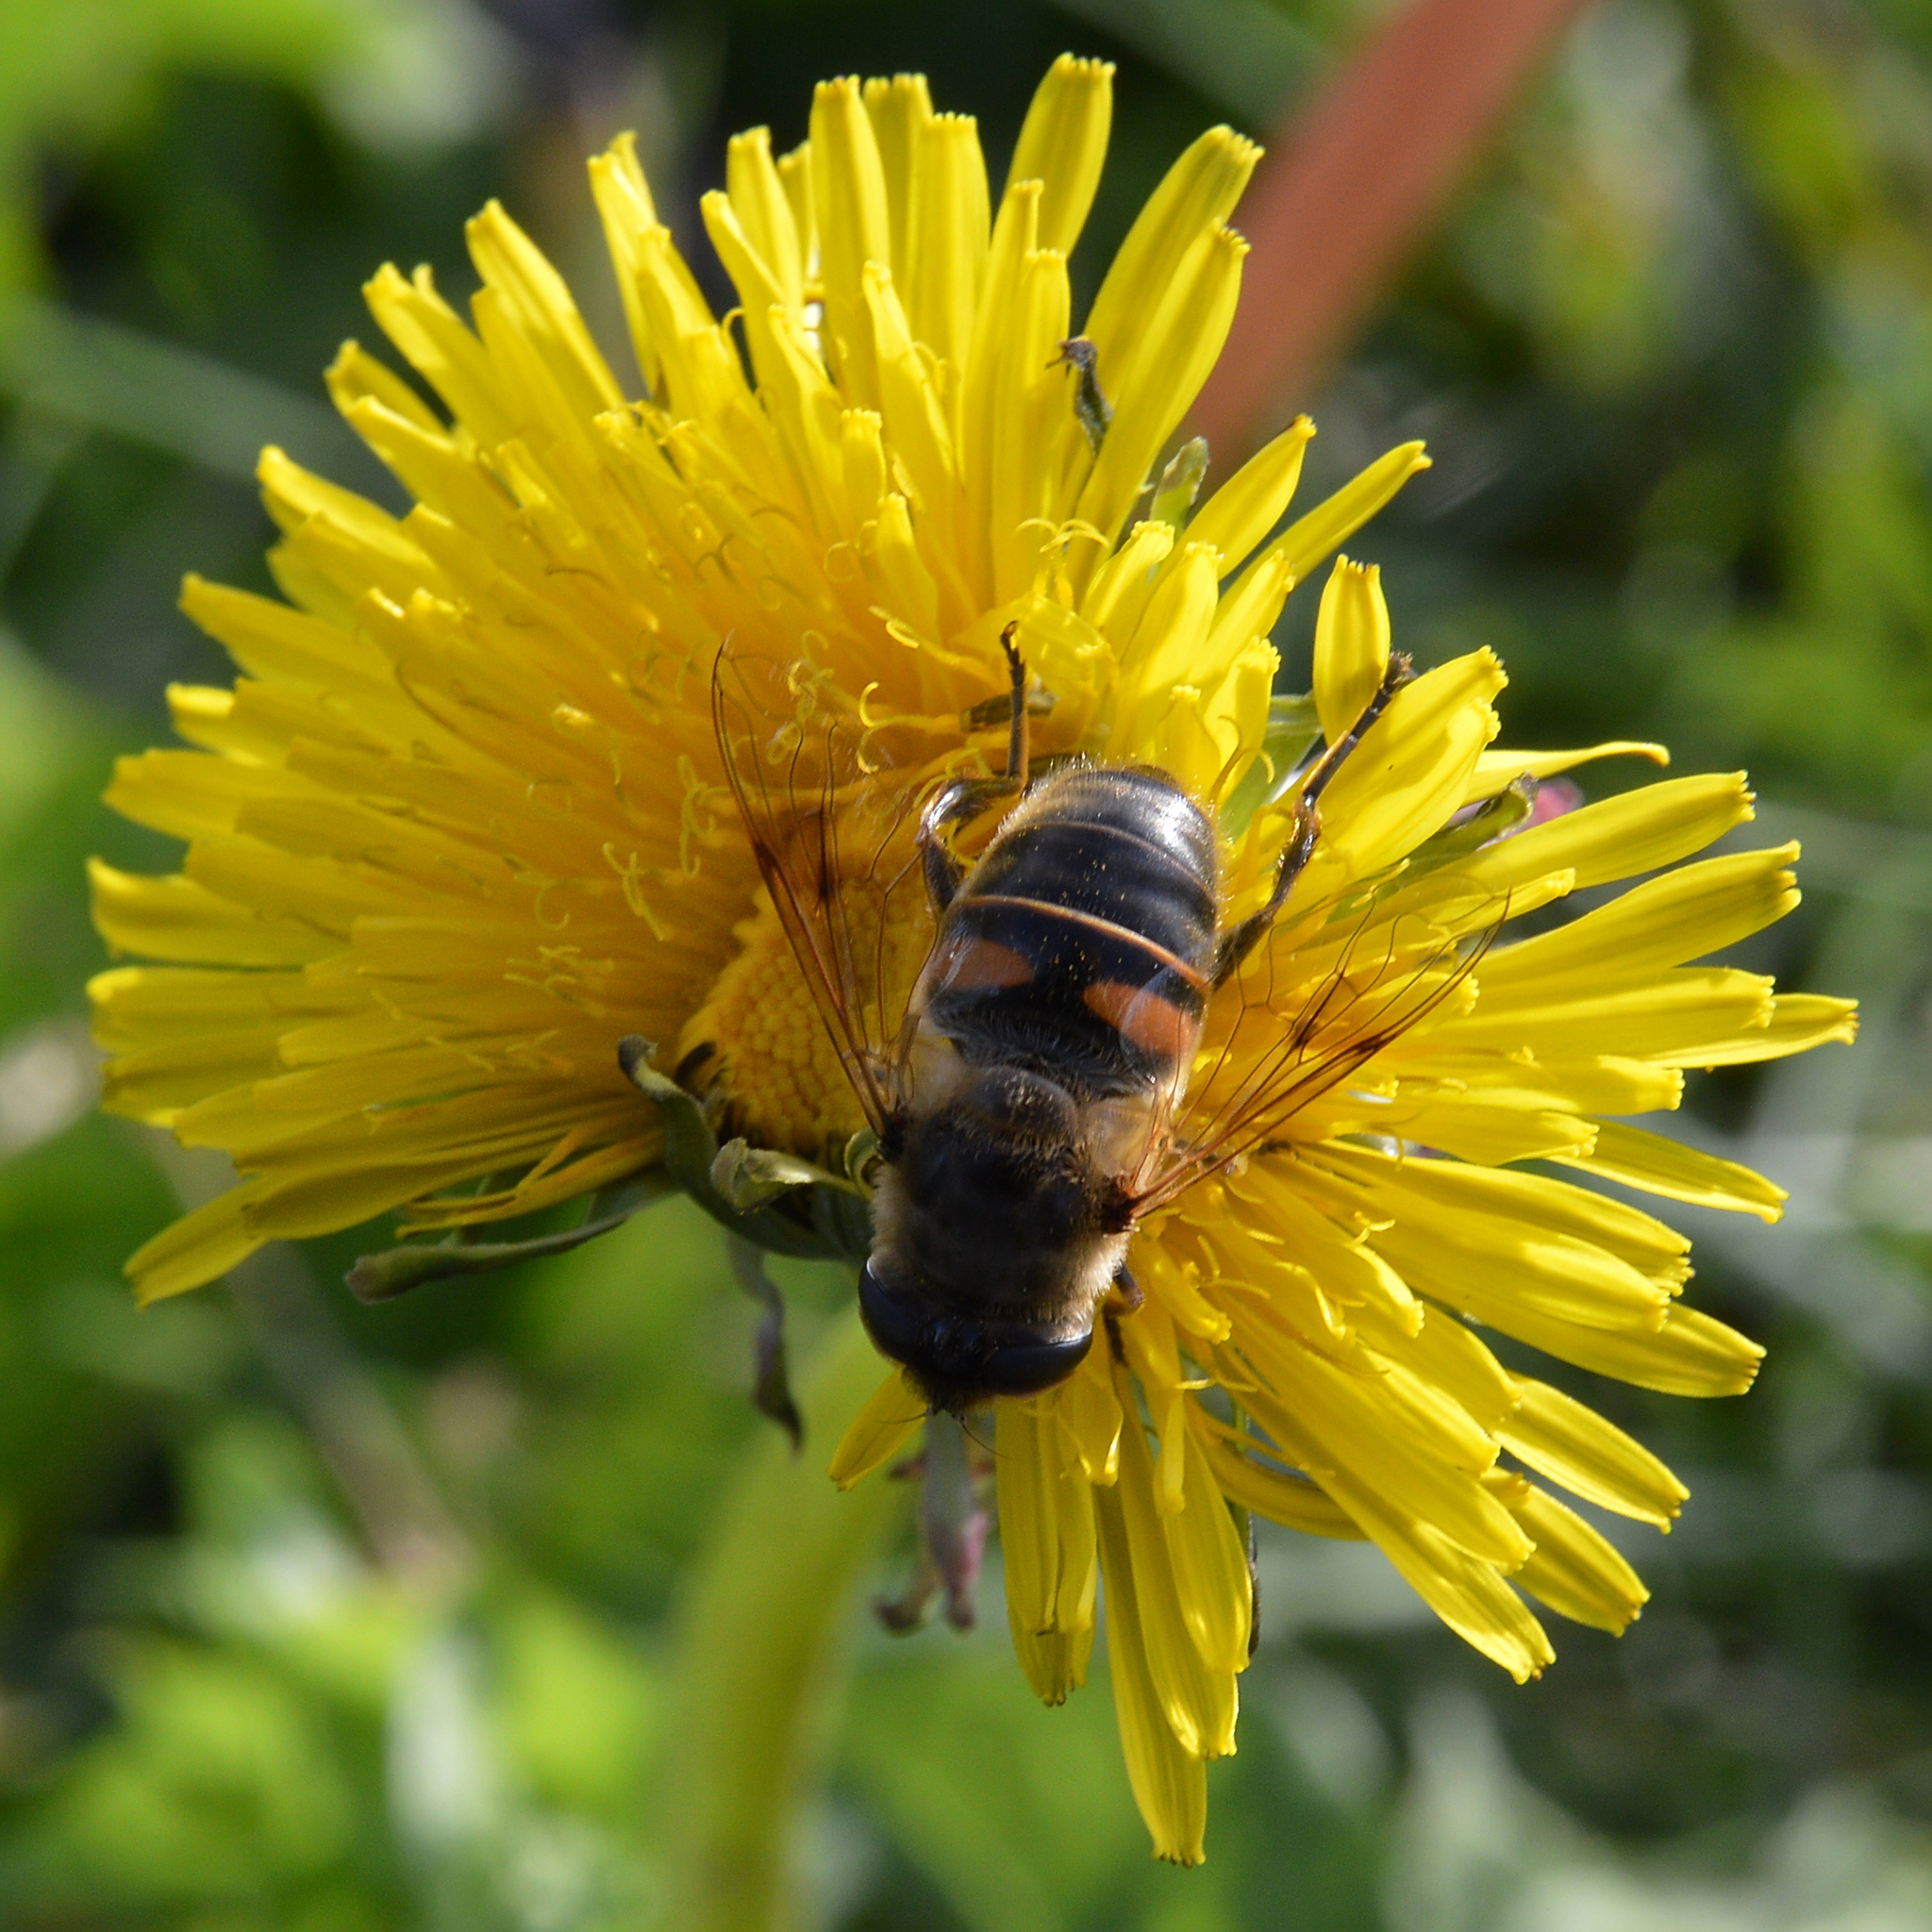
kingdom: Animalia
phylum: Arthropoda
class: Insecta
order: Diptera
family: Syrphidae
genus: Eristalis
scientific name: Eristalis tenax
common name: Drone fly
